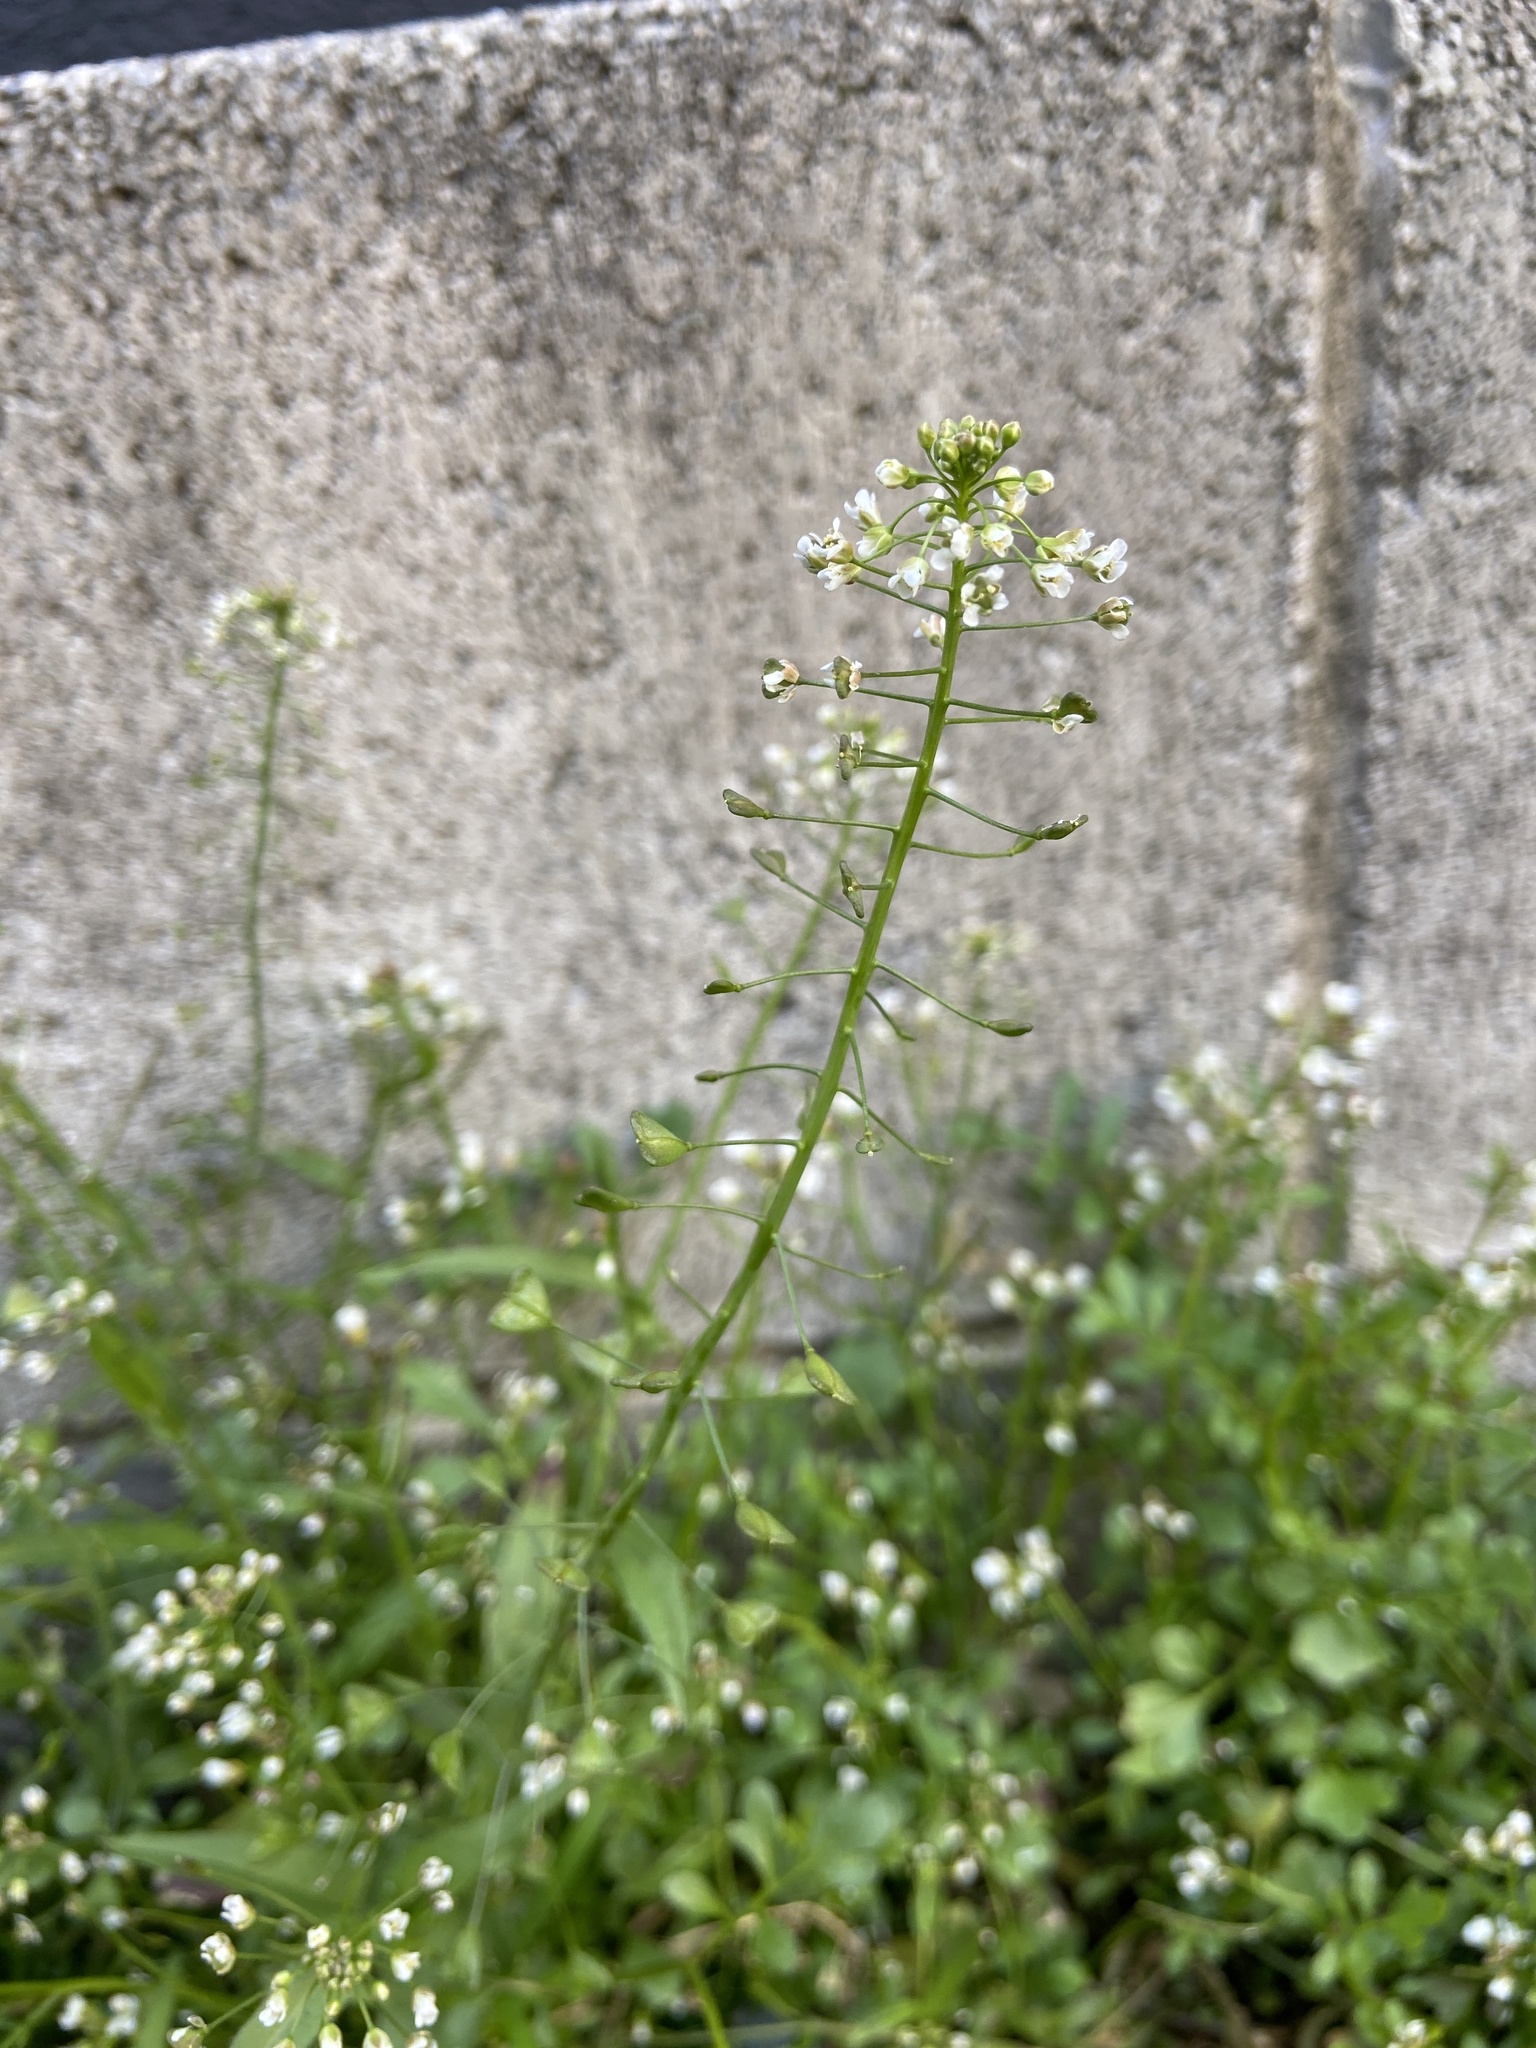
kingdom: Plantae
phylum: Tracheophyta
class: Magnoliopsida
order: Brassicales
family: Brassicaceae
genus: Capsella
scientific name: Capsella bursa-pastoris
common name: Shepherd's purse
